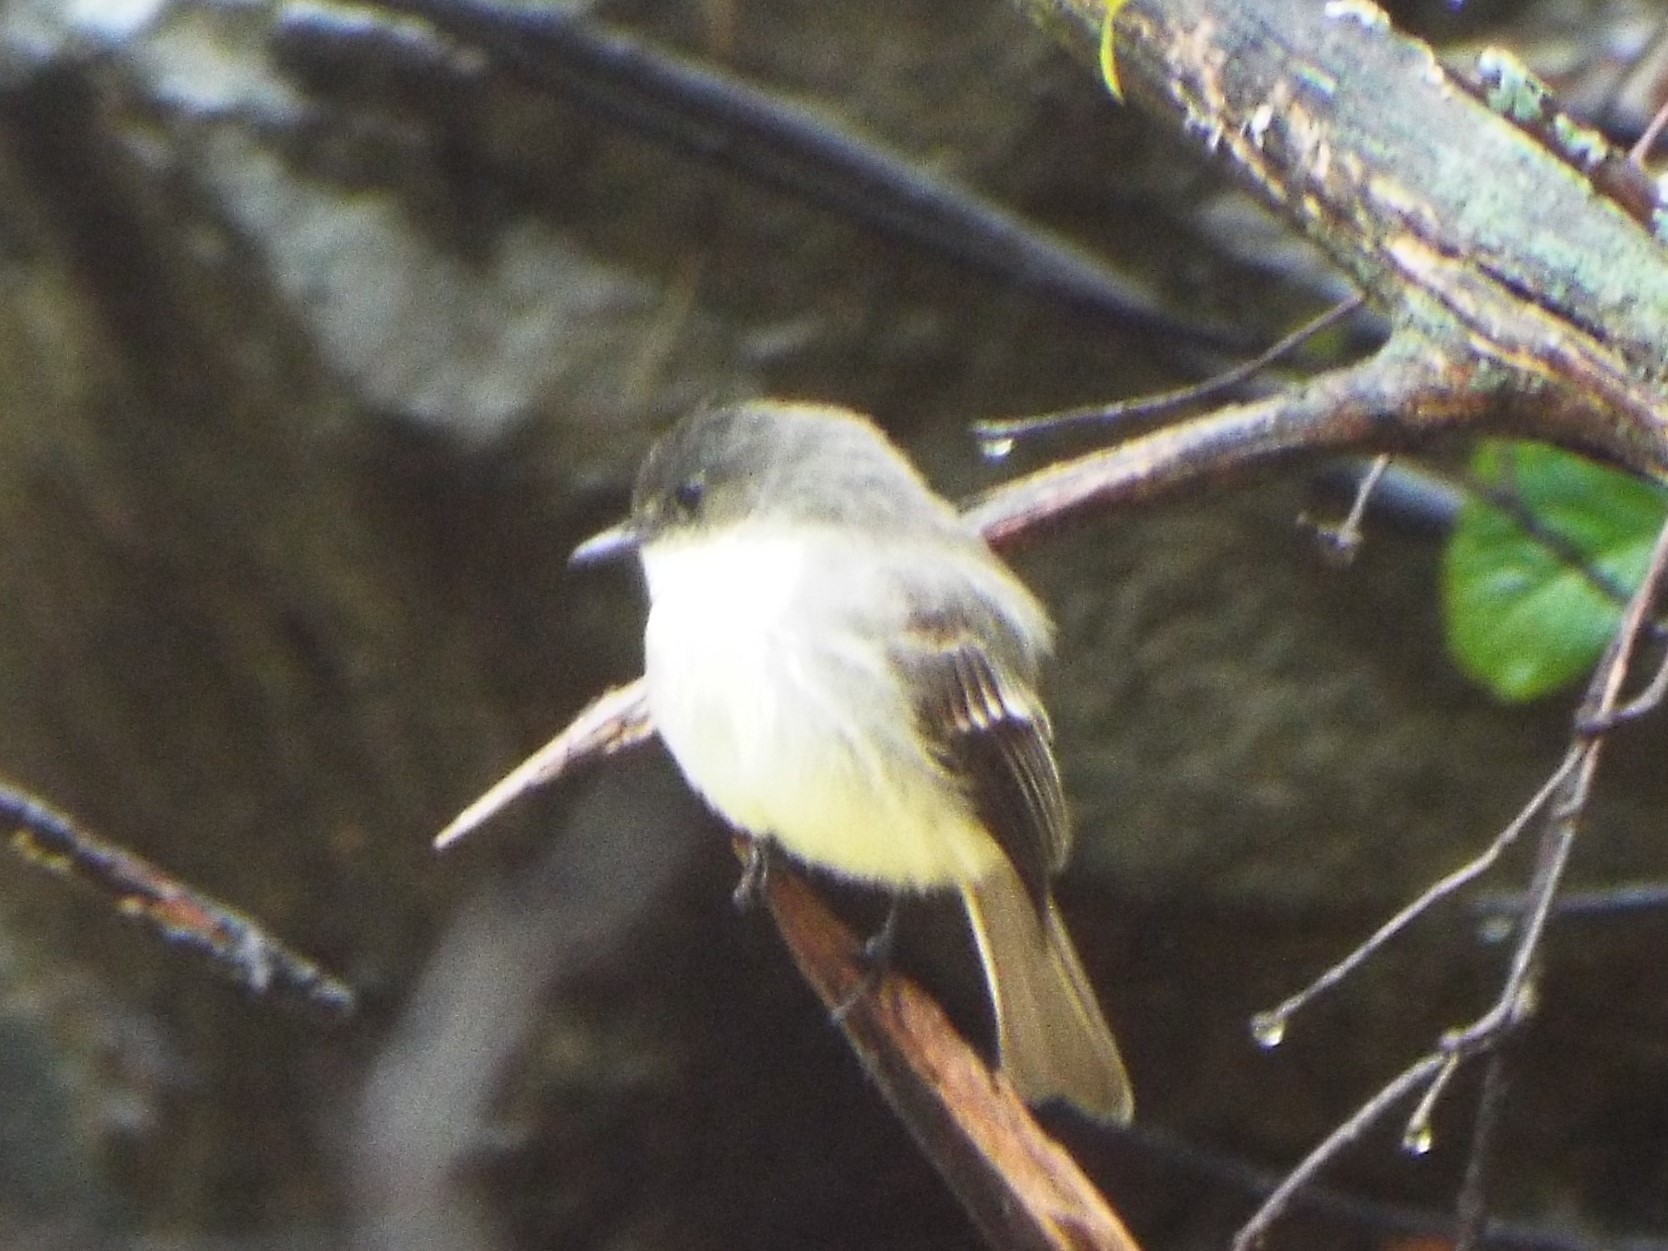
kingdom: Animalia
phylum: Chordata
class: Aves
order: Passeriformes
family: Tyrannidae
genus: Sayornis
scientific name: Sayornis phoebe
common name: Eastern phoebe
